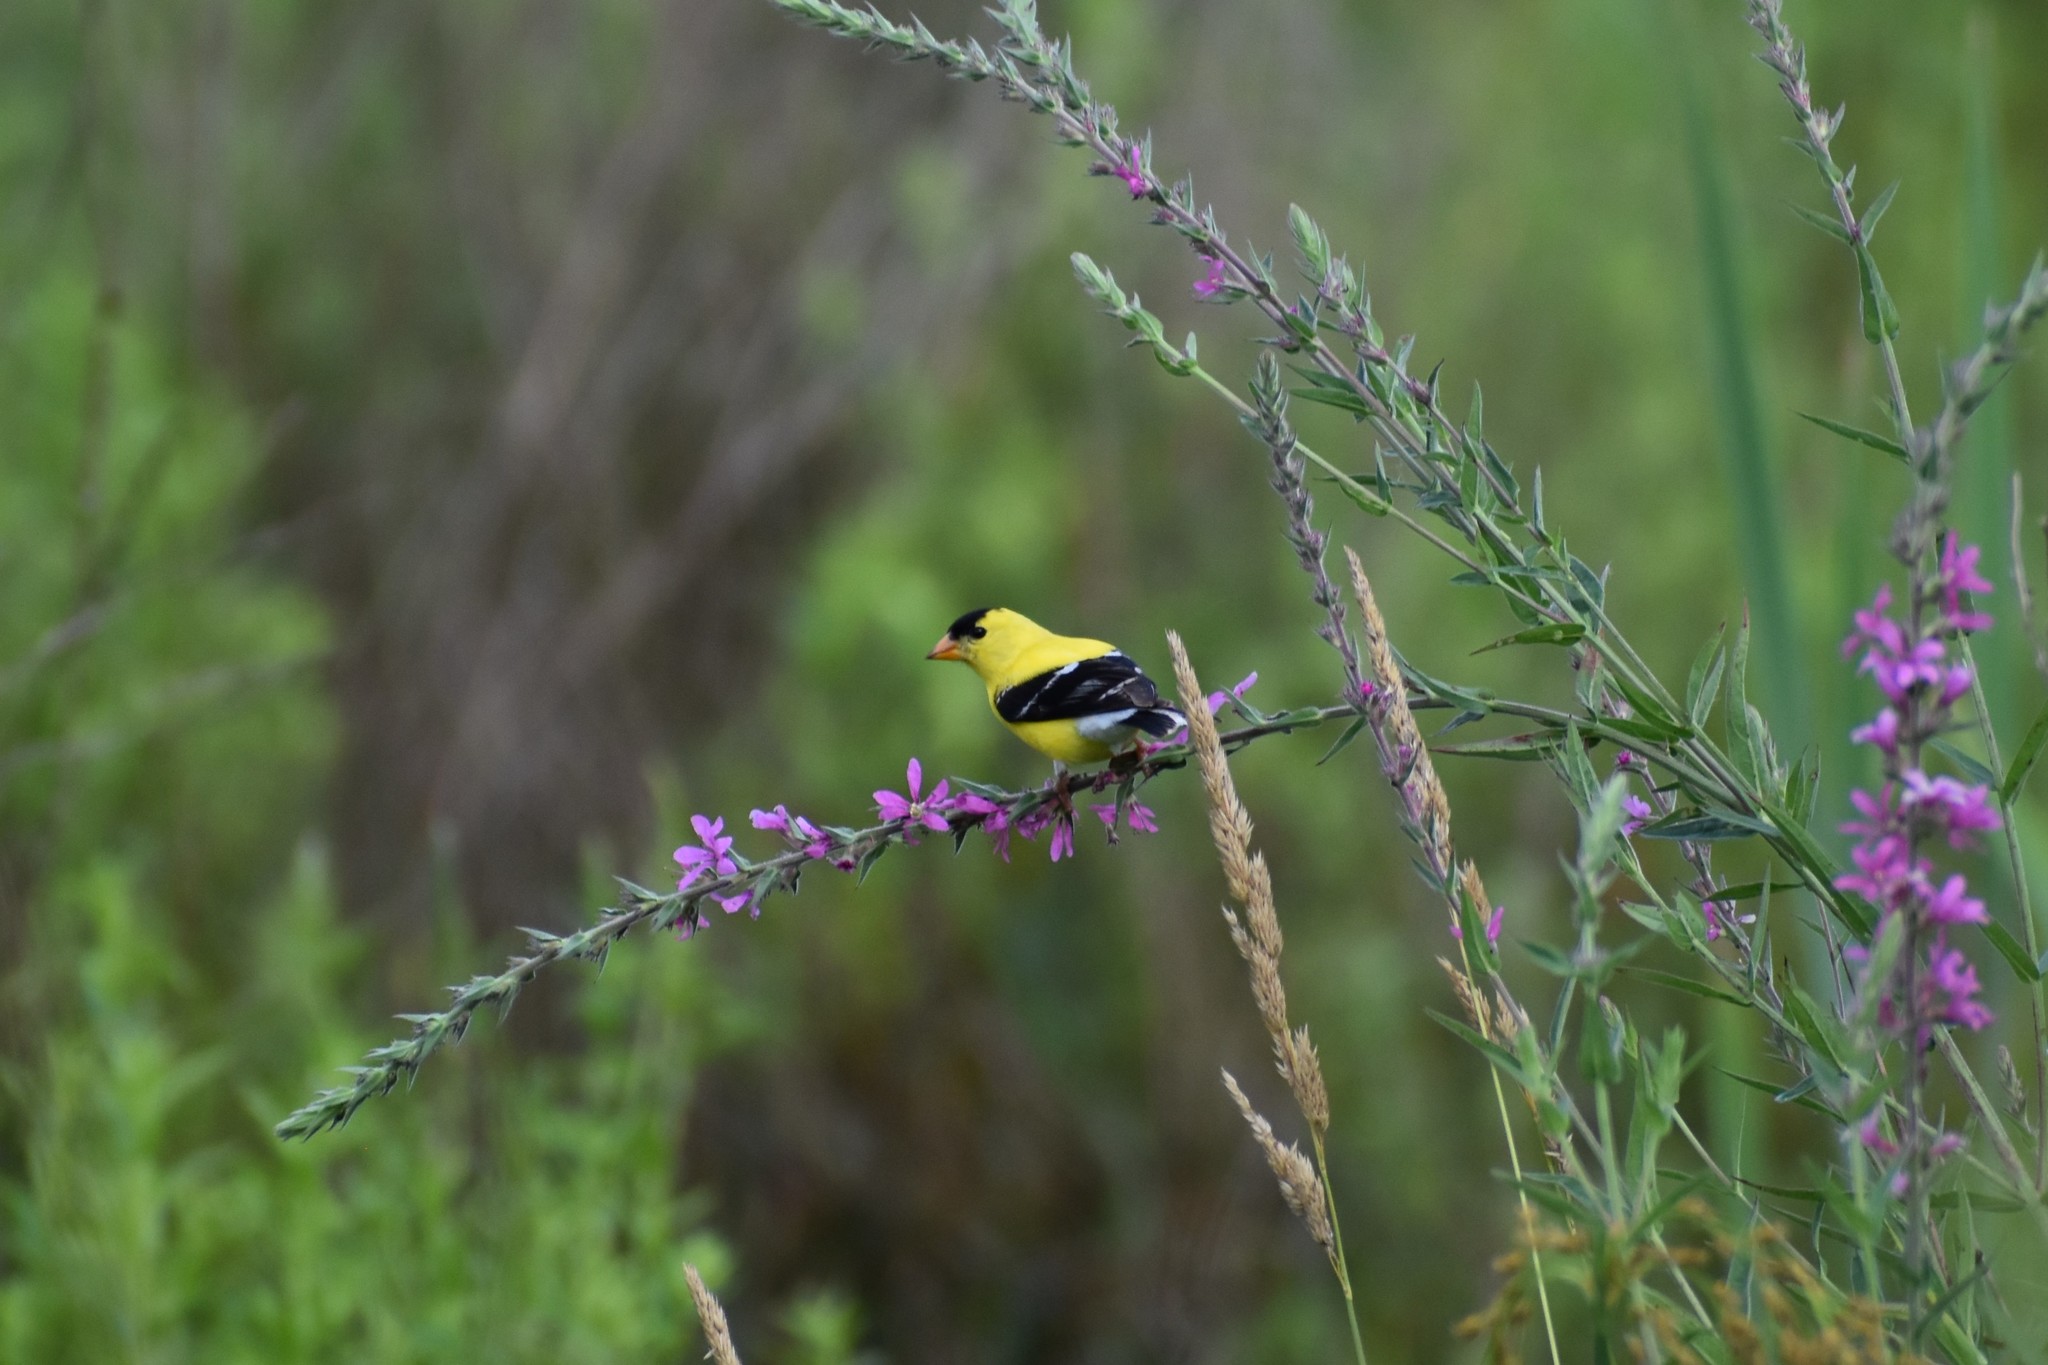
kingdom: Animalia
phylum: Chordata
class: Aves
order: Passeriformes
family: Fringillidae
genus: Spinus
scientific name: Spinus tristis
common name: American goldfinch
